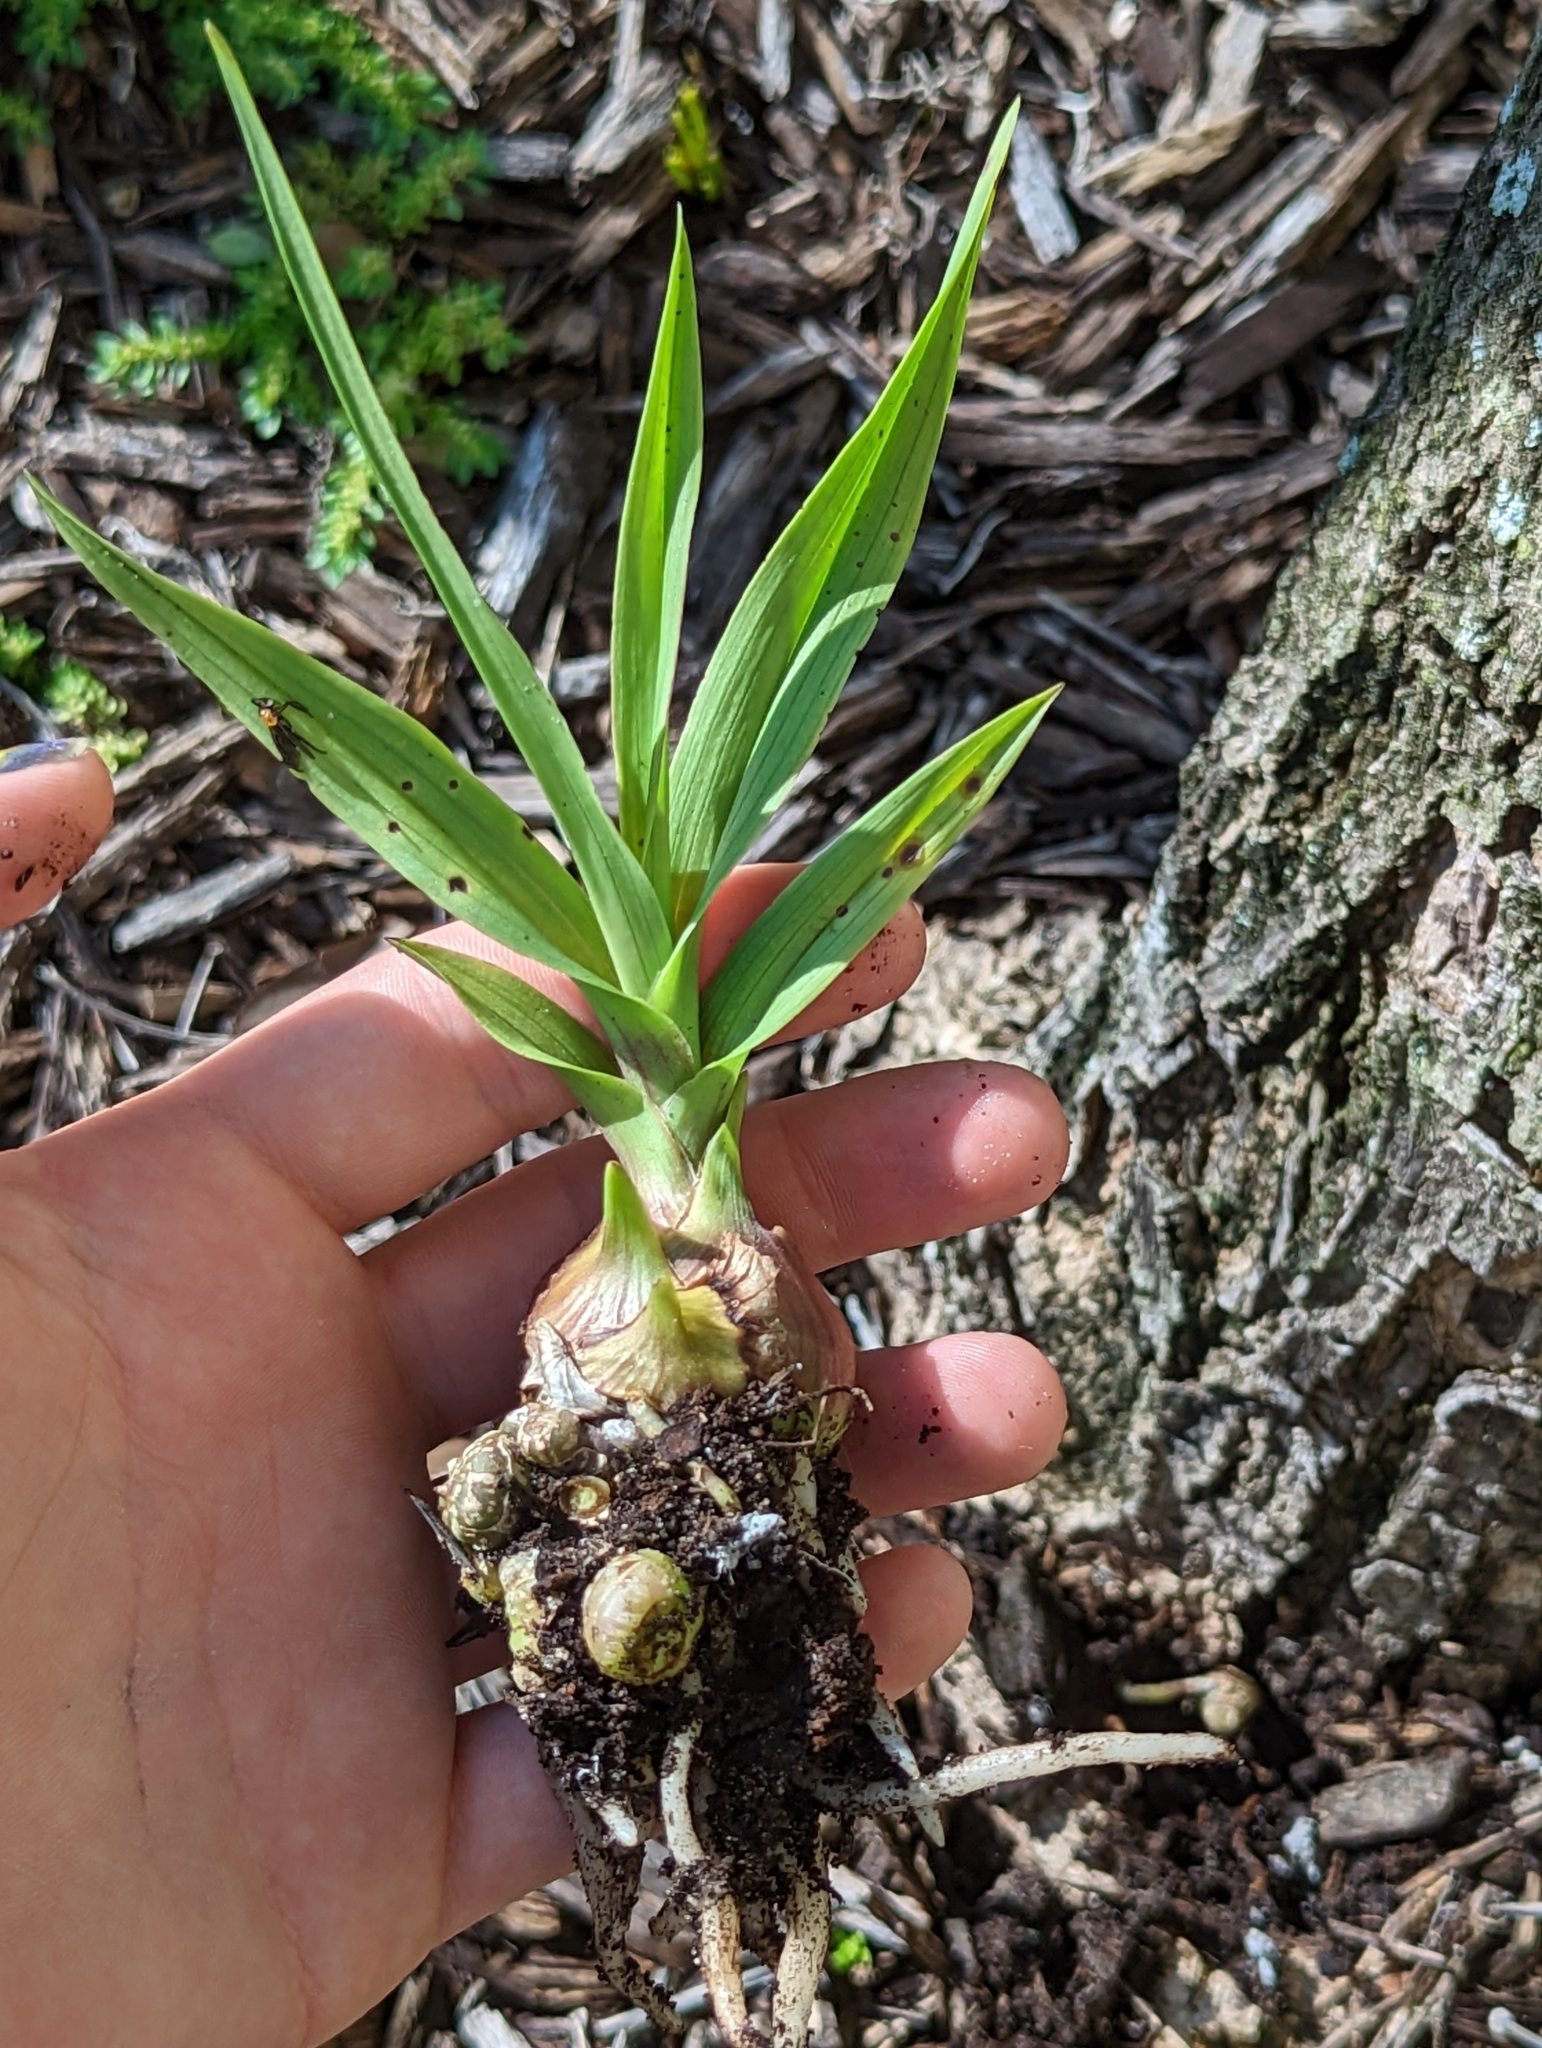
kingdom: Plantae
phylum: Tracheophyta
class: Liliopsida
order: Asparagales
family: Orchidaceae
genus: Eulophia
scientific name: Eulophia graminea
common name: Orchid
